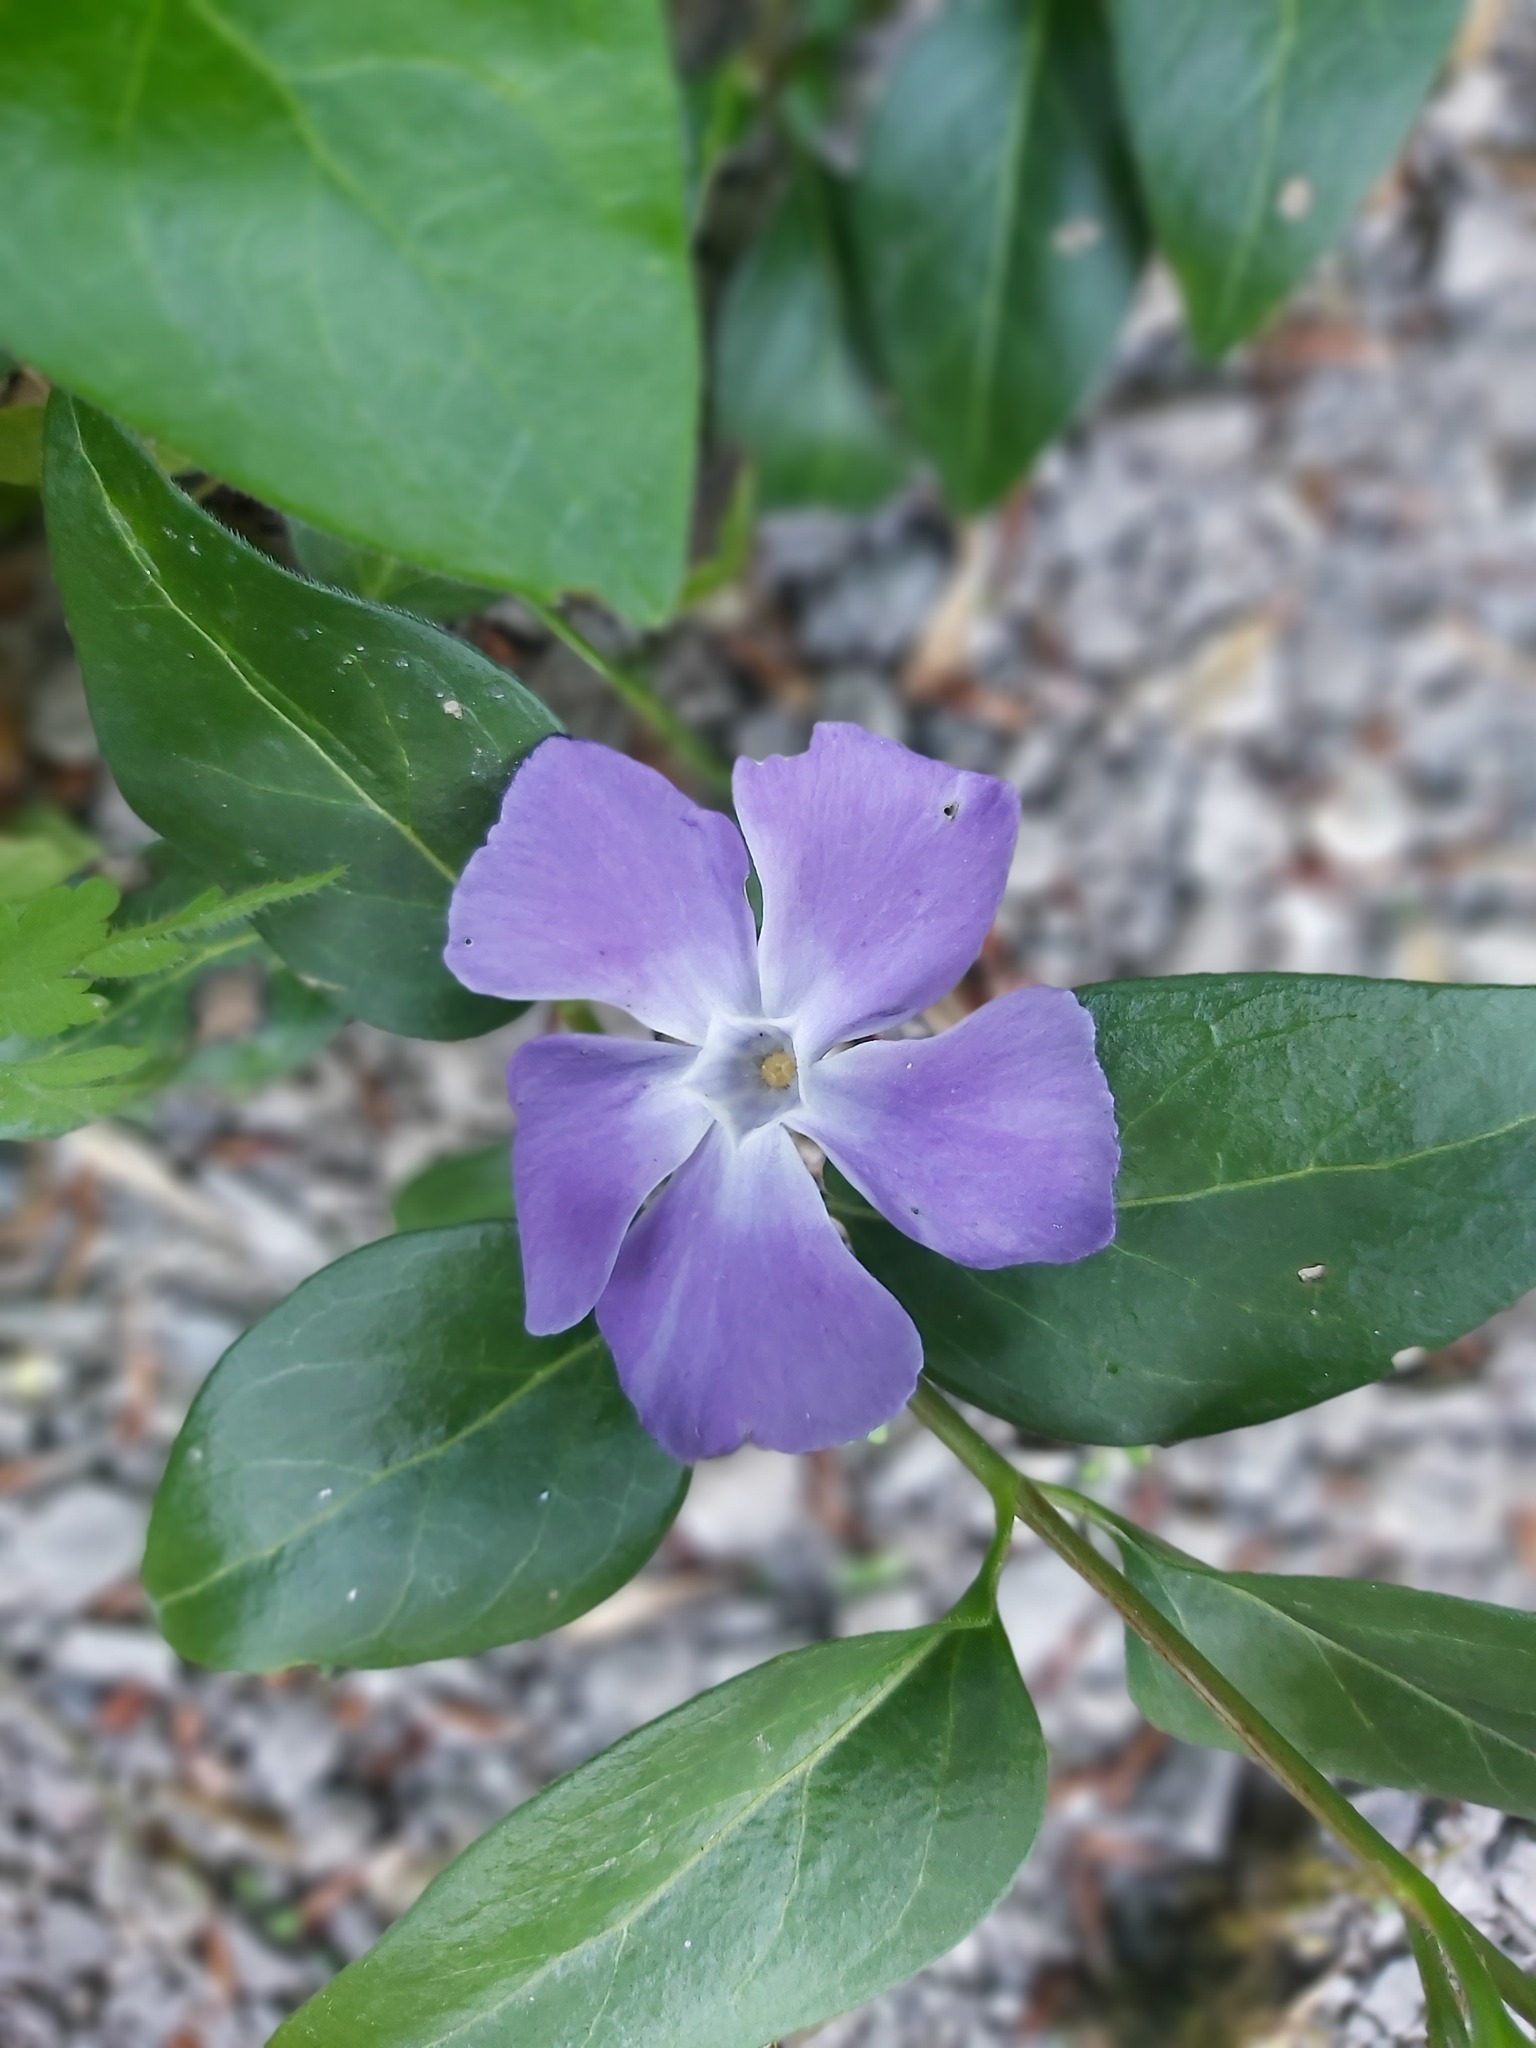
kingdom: Plantae
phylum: Tracheophyta
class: Magnoliopsida
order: Gentianales
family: Apocynaceae
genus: Vinca
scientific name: Vinca major
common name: Greater periwinkle
